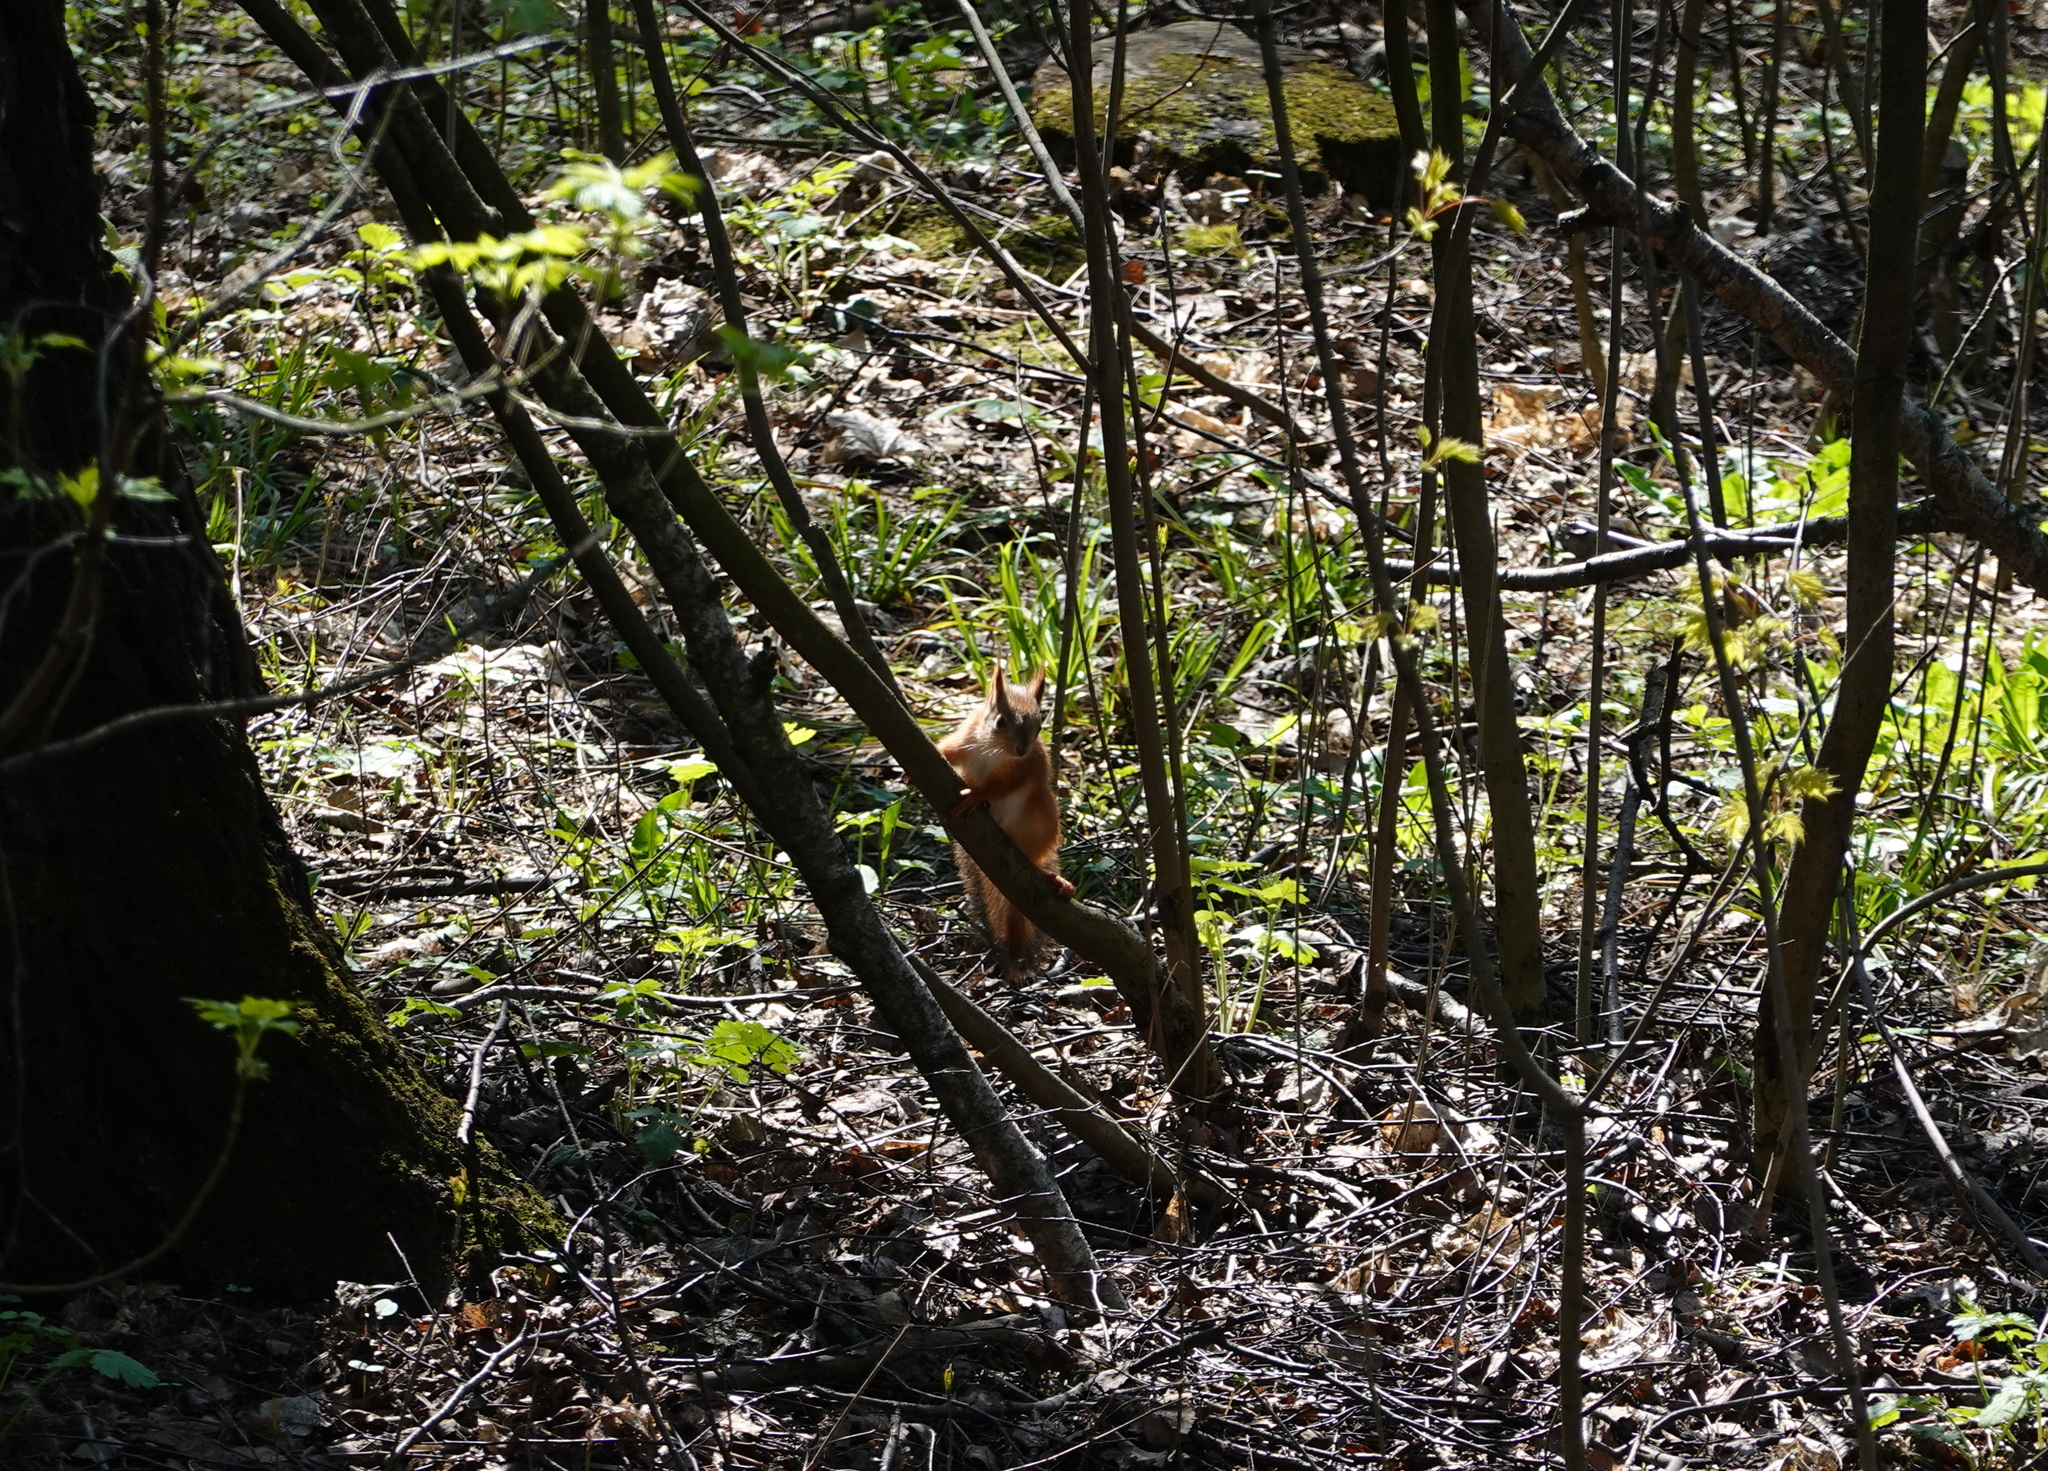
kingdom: Animalia
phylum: Chordata
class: Mammalia
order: Rodentia
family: Sciuridae
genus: Sciurus
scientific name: Sciurus vulgaris
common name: Eurasian red squirrel
